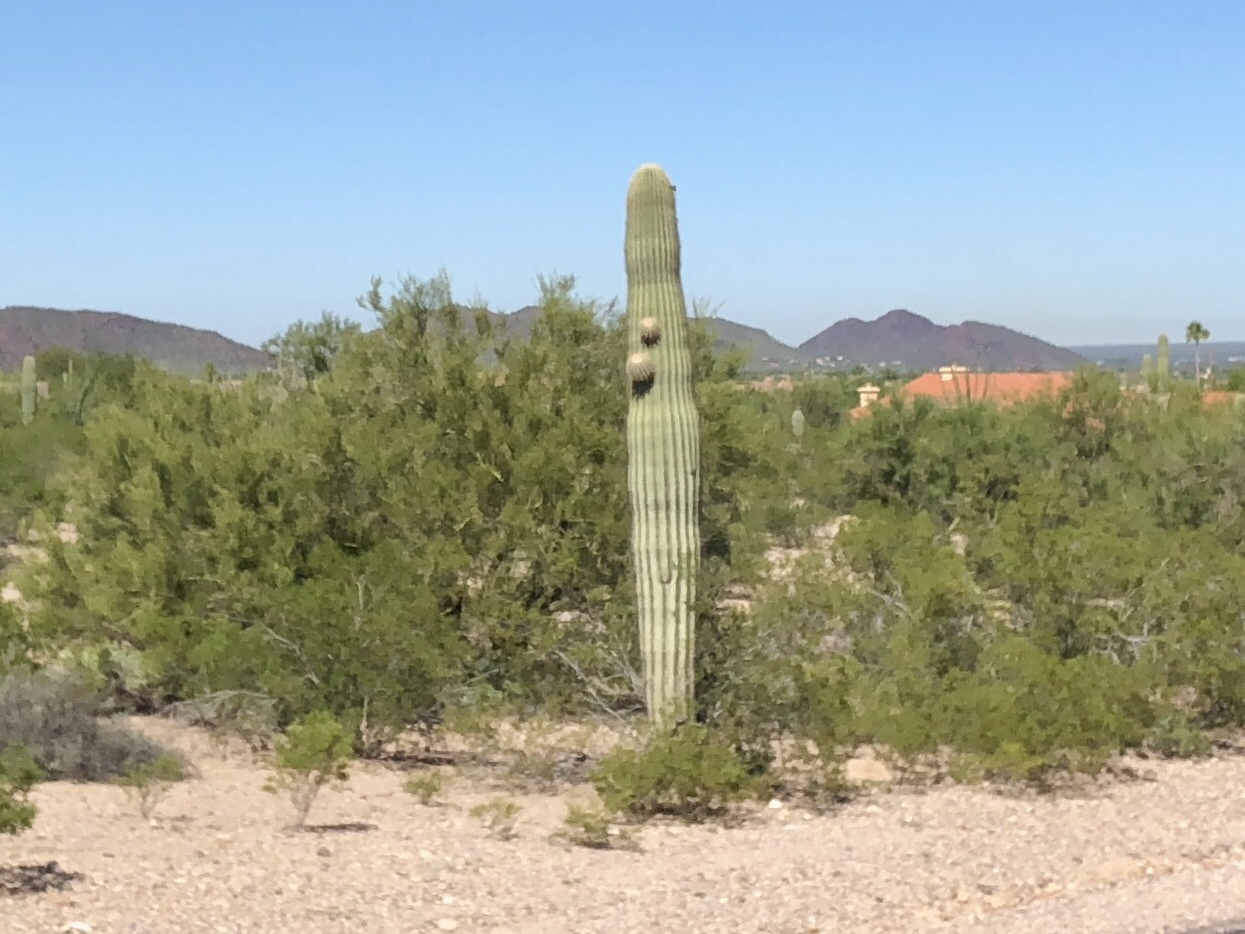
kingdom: Plantae
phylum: Tracheophyta
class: Magnoliopsida
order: Caryophyllales
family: Cactaceae
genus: Carnegiea
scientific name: Carnegiea gigantea
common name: Saguaro
